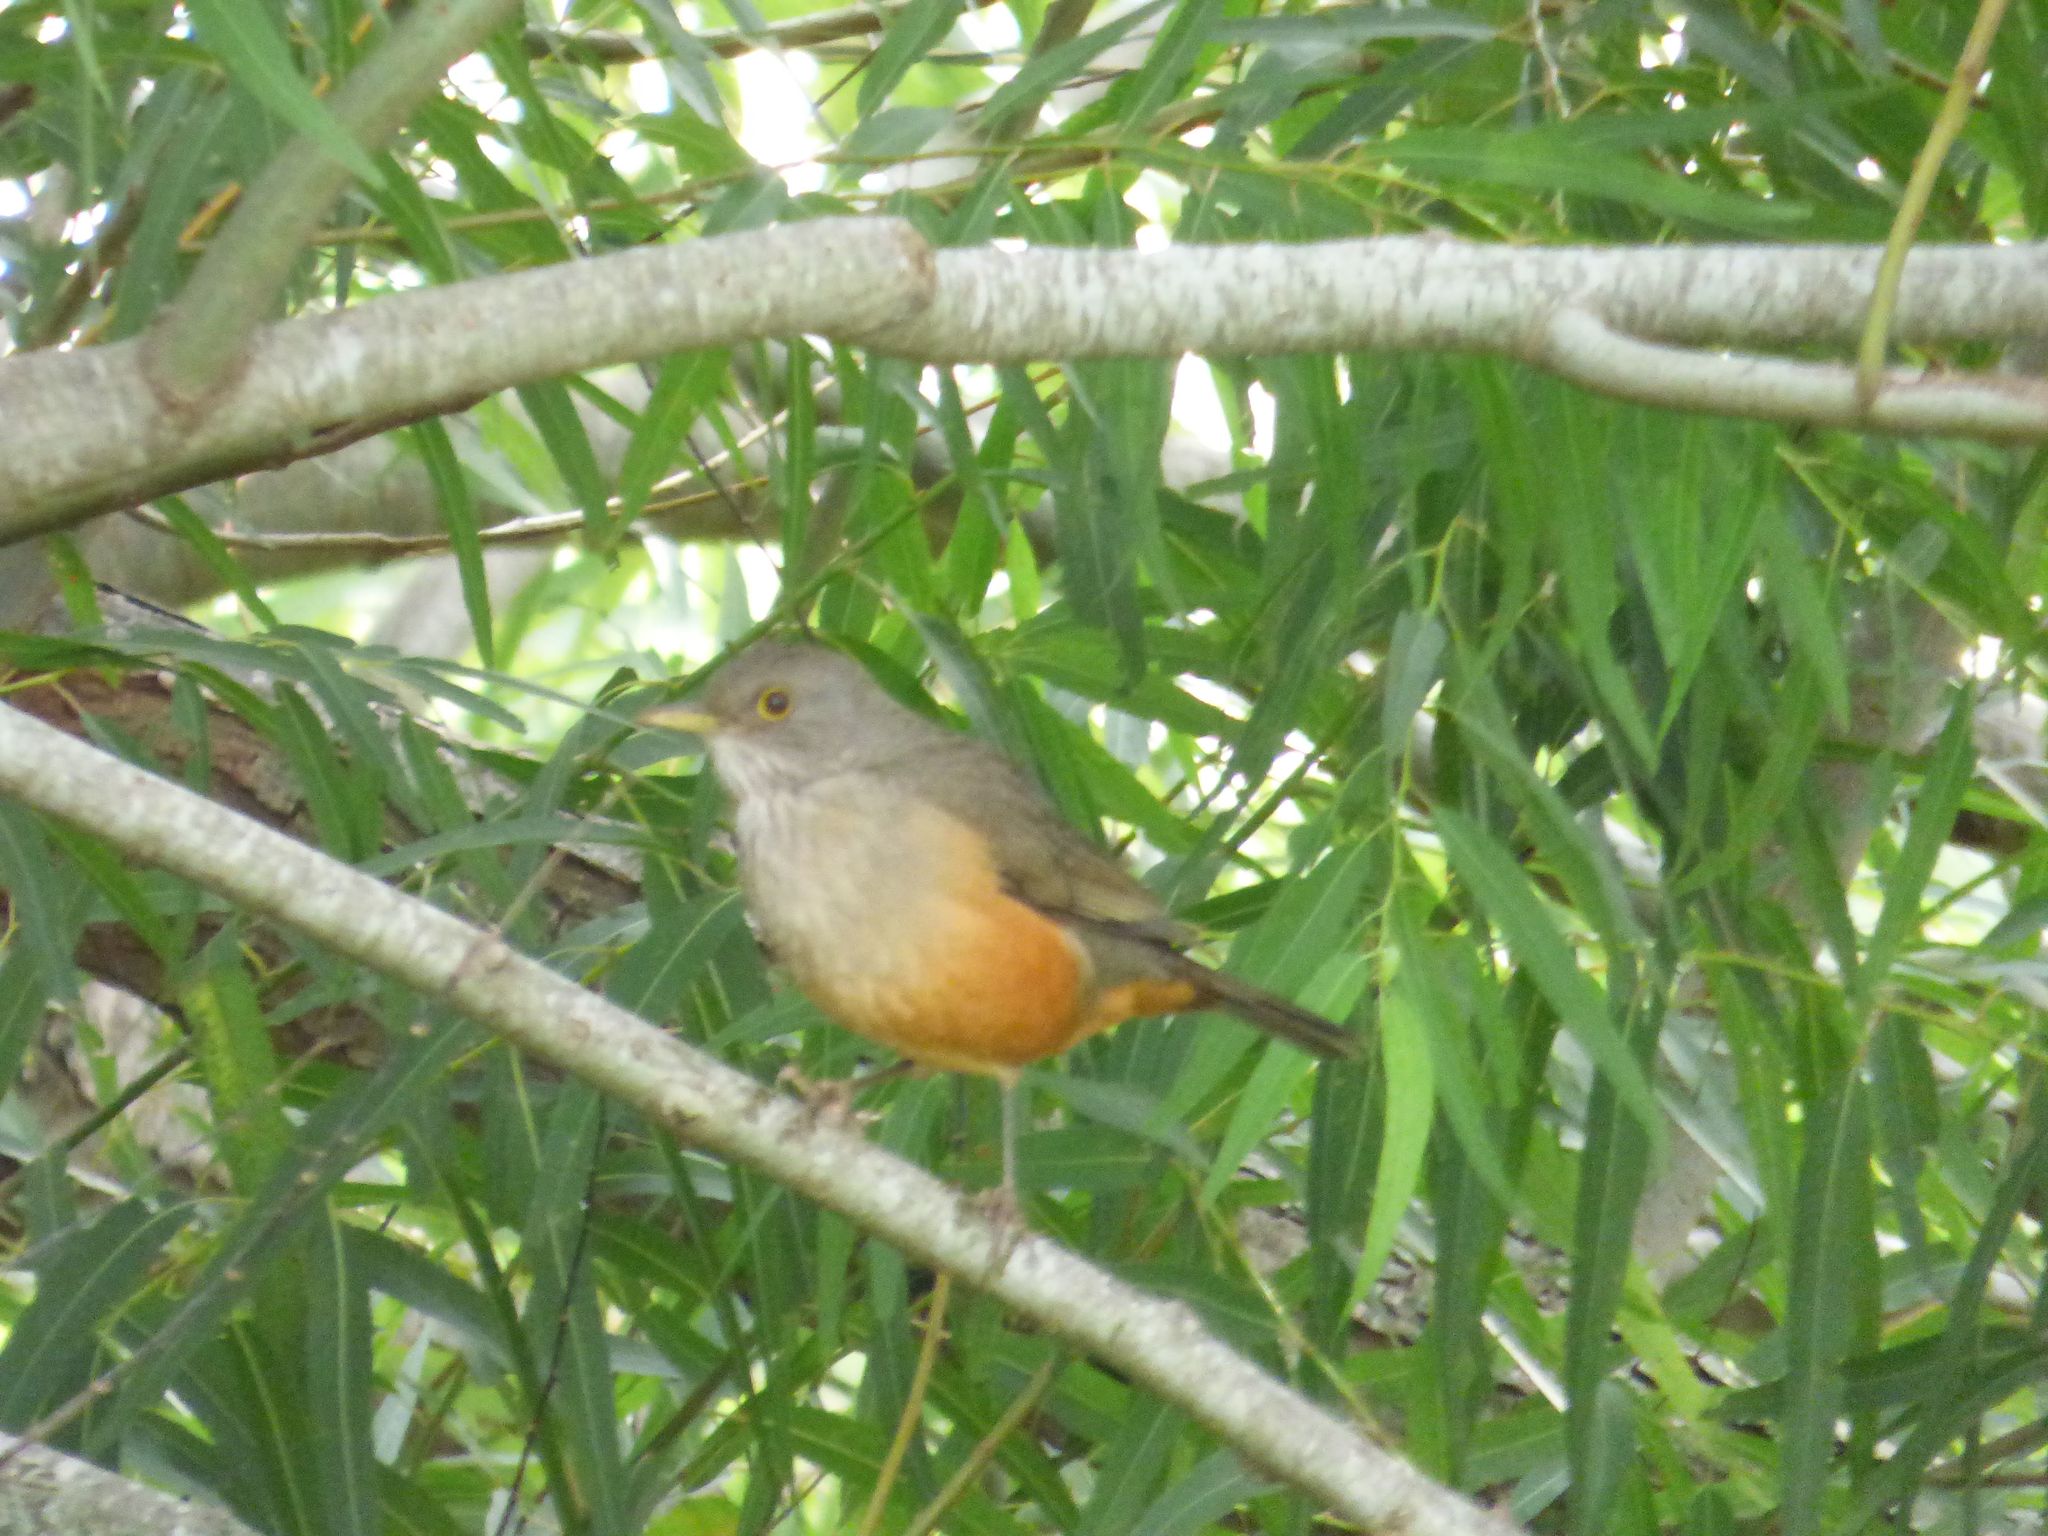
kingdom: Animalia
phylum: Chordata
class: Aves
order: Passeriformes
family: Turdidae
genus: Turdus
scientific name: Turdus rufiventris
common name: Rufous-bellied thrush
